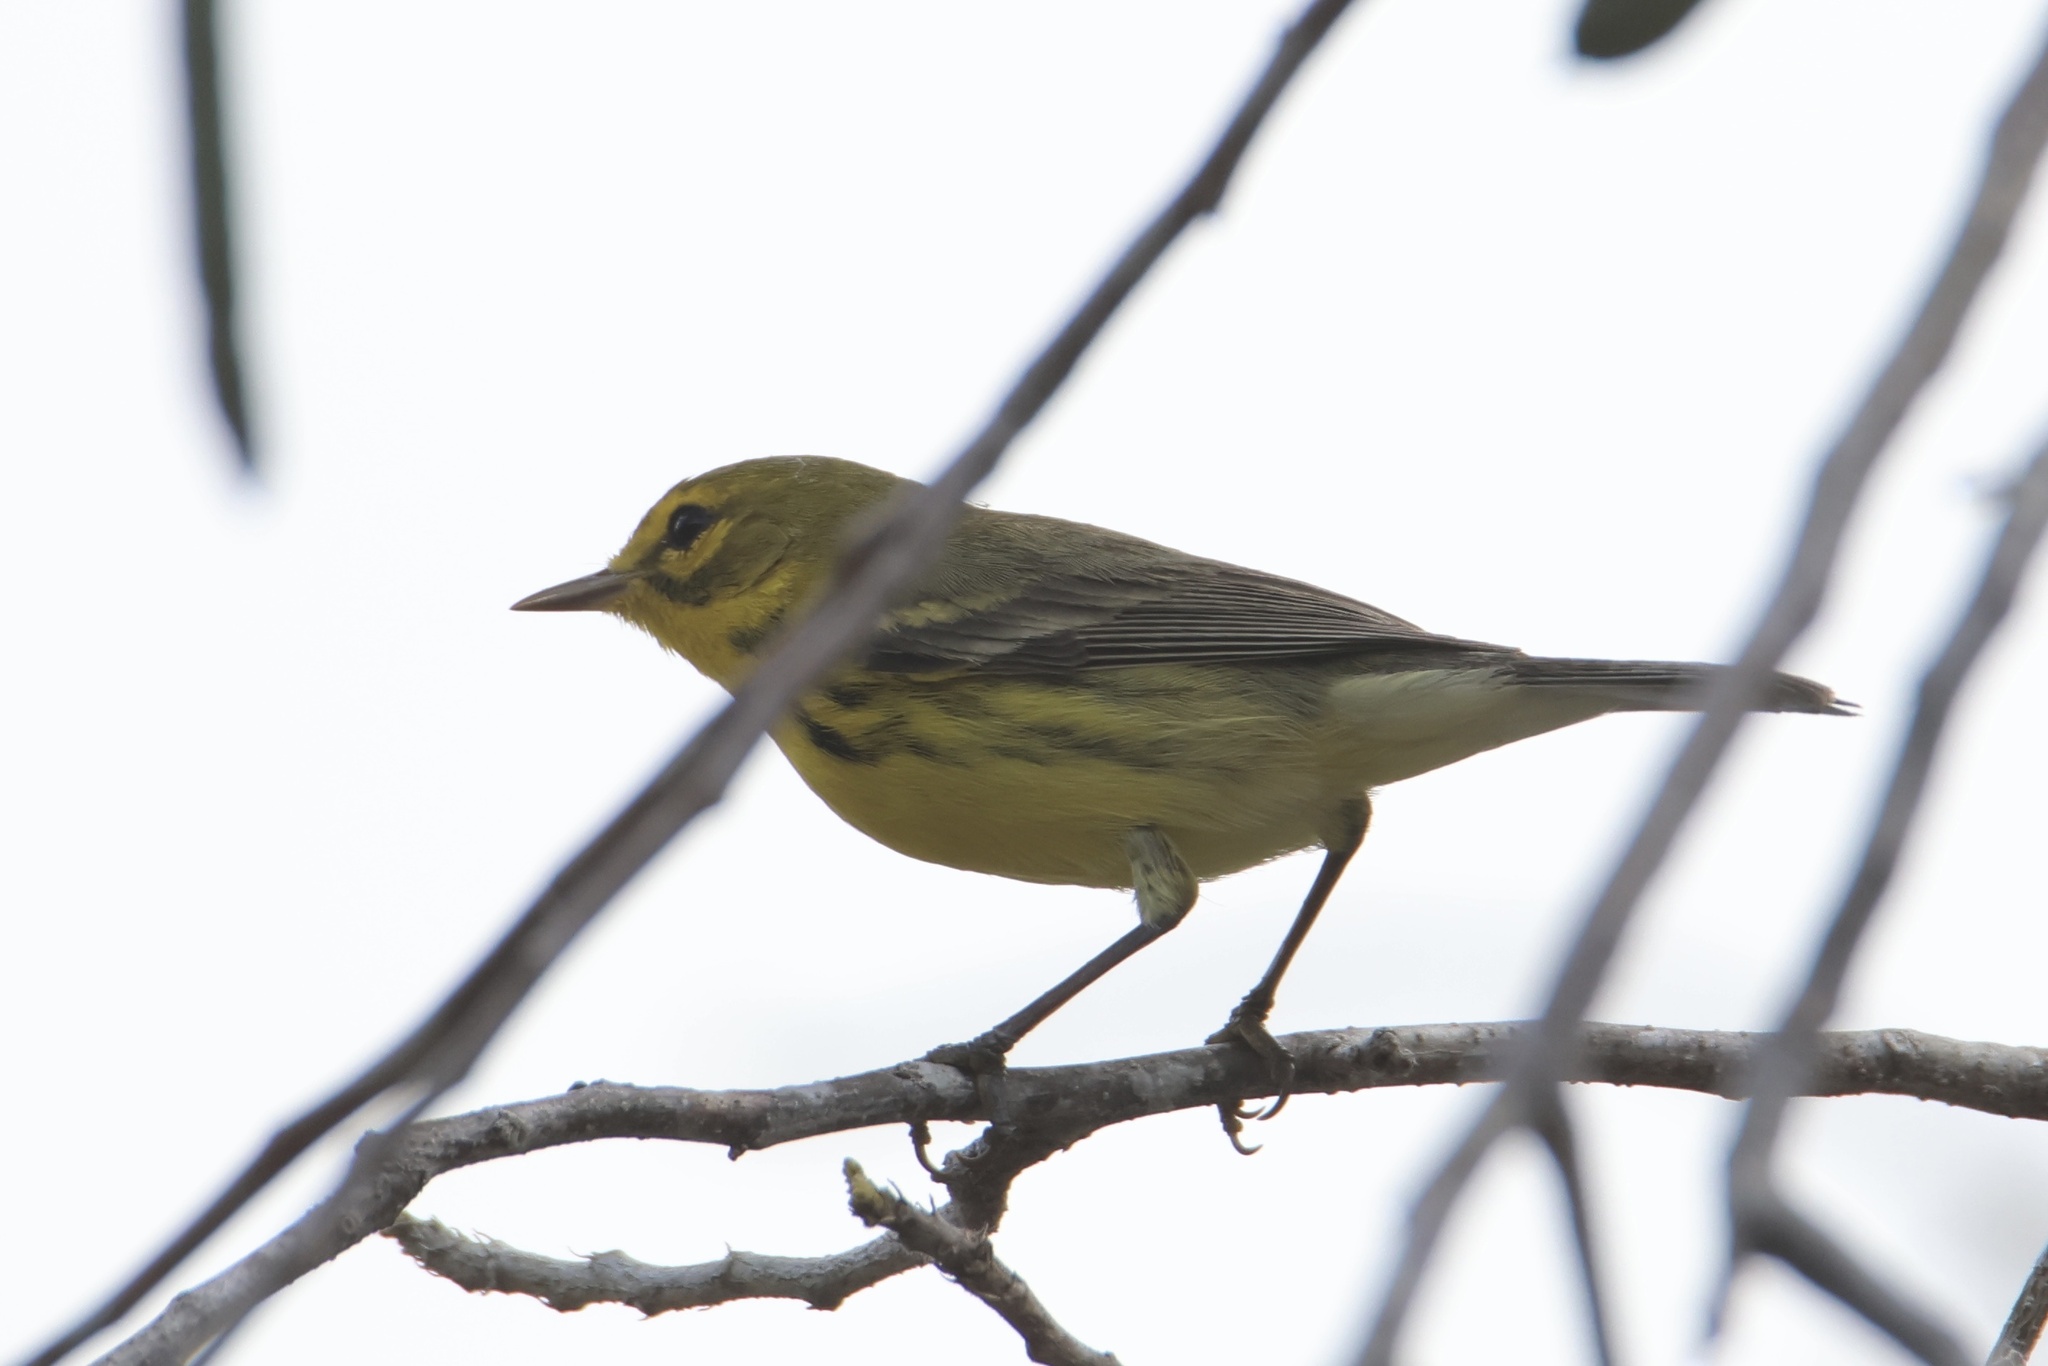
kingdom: Animalia
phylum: Chordata
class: Aves
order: Passeriformes
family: Parulidae
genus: Setophaga
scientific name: Setophaga discolor
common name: Prairie warbler
